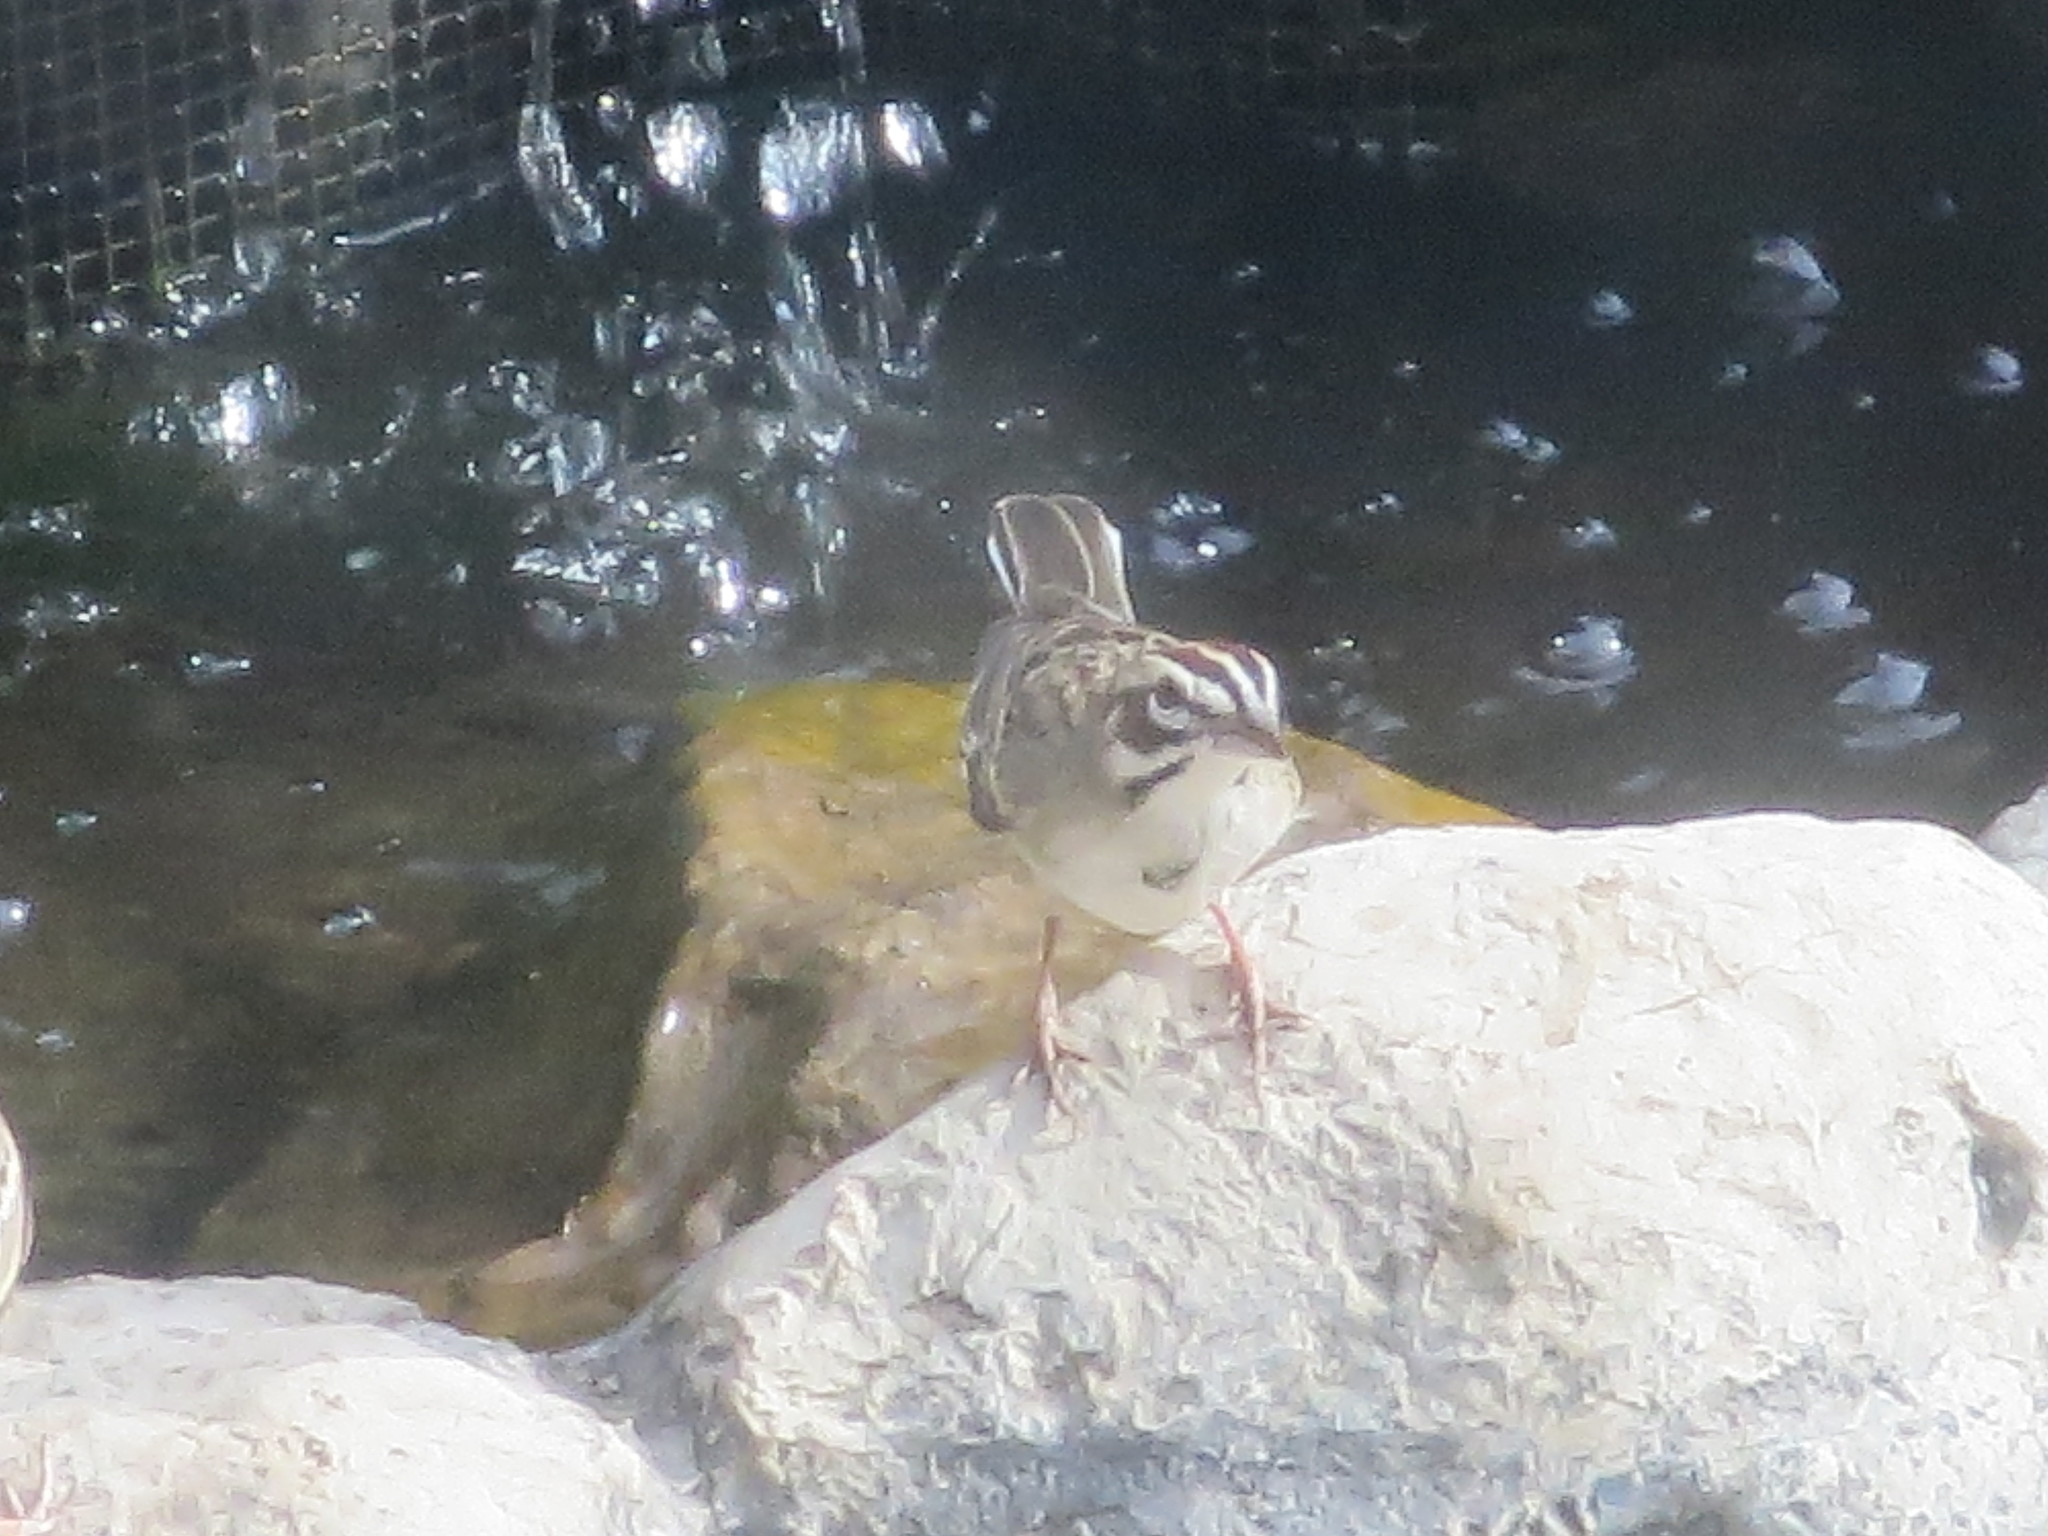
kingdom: Animalia
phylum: Chordata
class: Aves
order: Passeriformes
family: Passerellidae
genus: Chondestes
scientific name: Chondestes grammacus
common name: Lark sparrow
